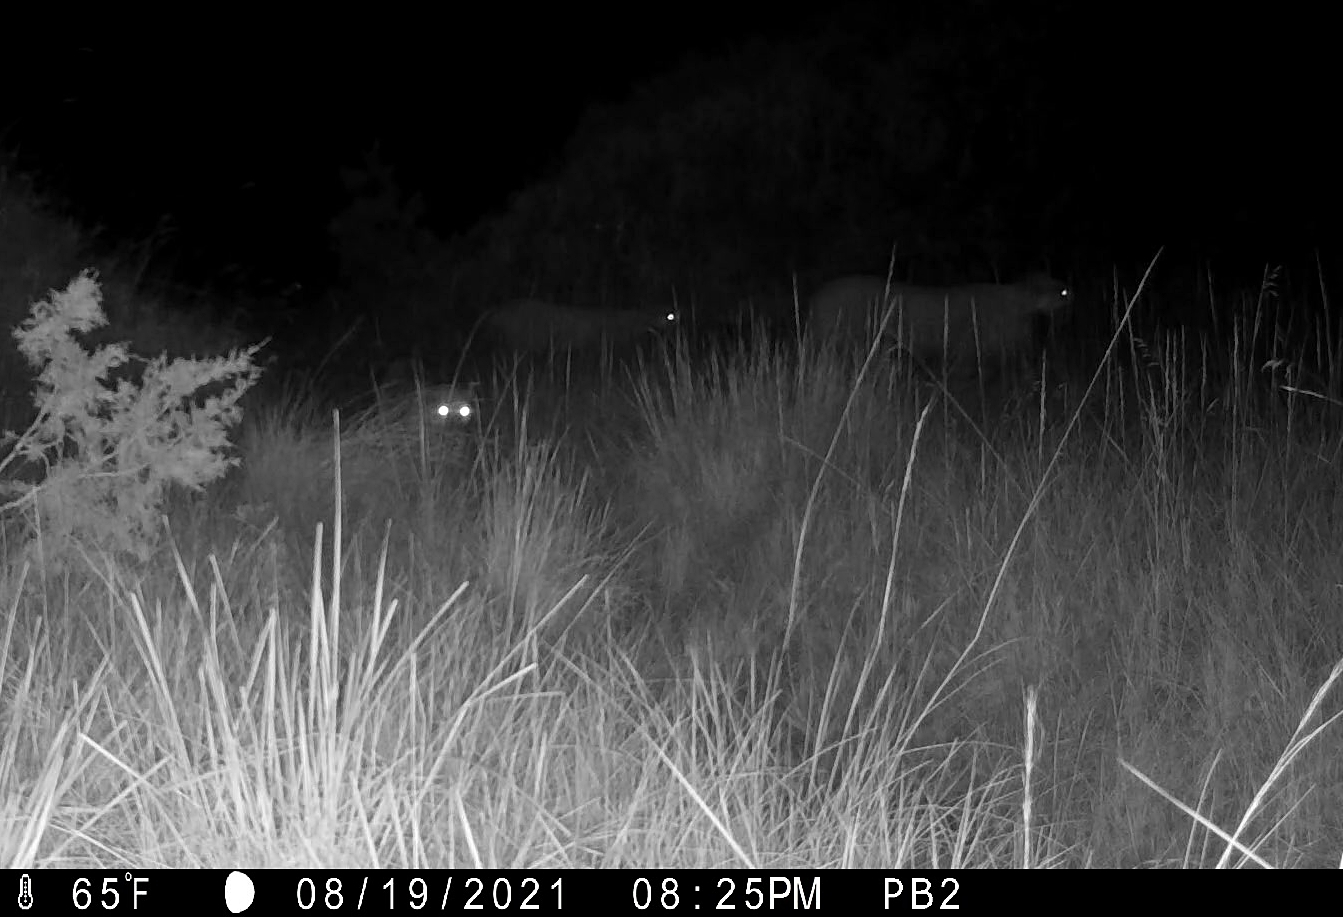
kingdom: Animalia
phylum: Chordata
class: Mammalia
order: Carnivora
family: Felidae
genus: Puma
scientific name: Puma concolor
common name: Puma
